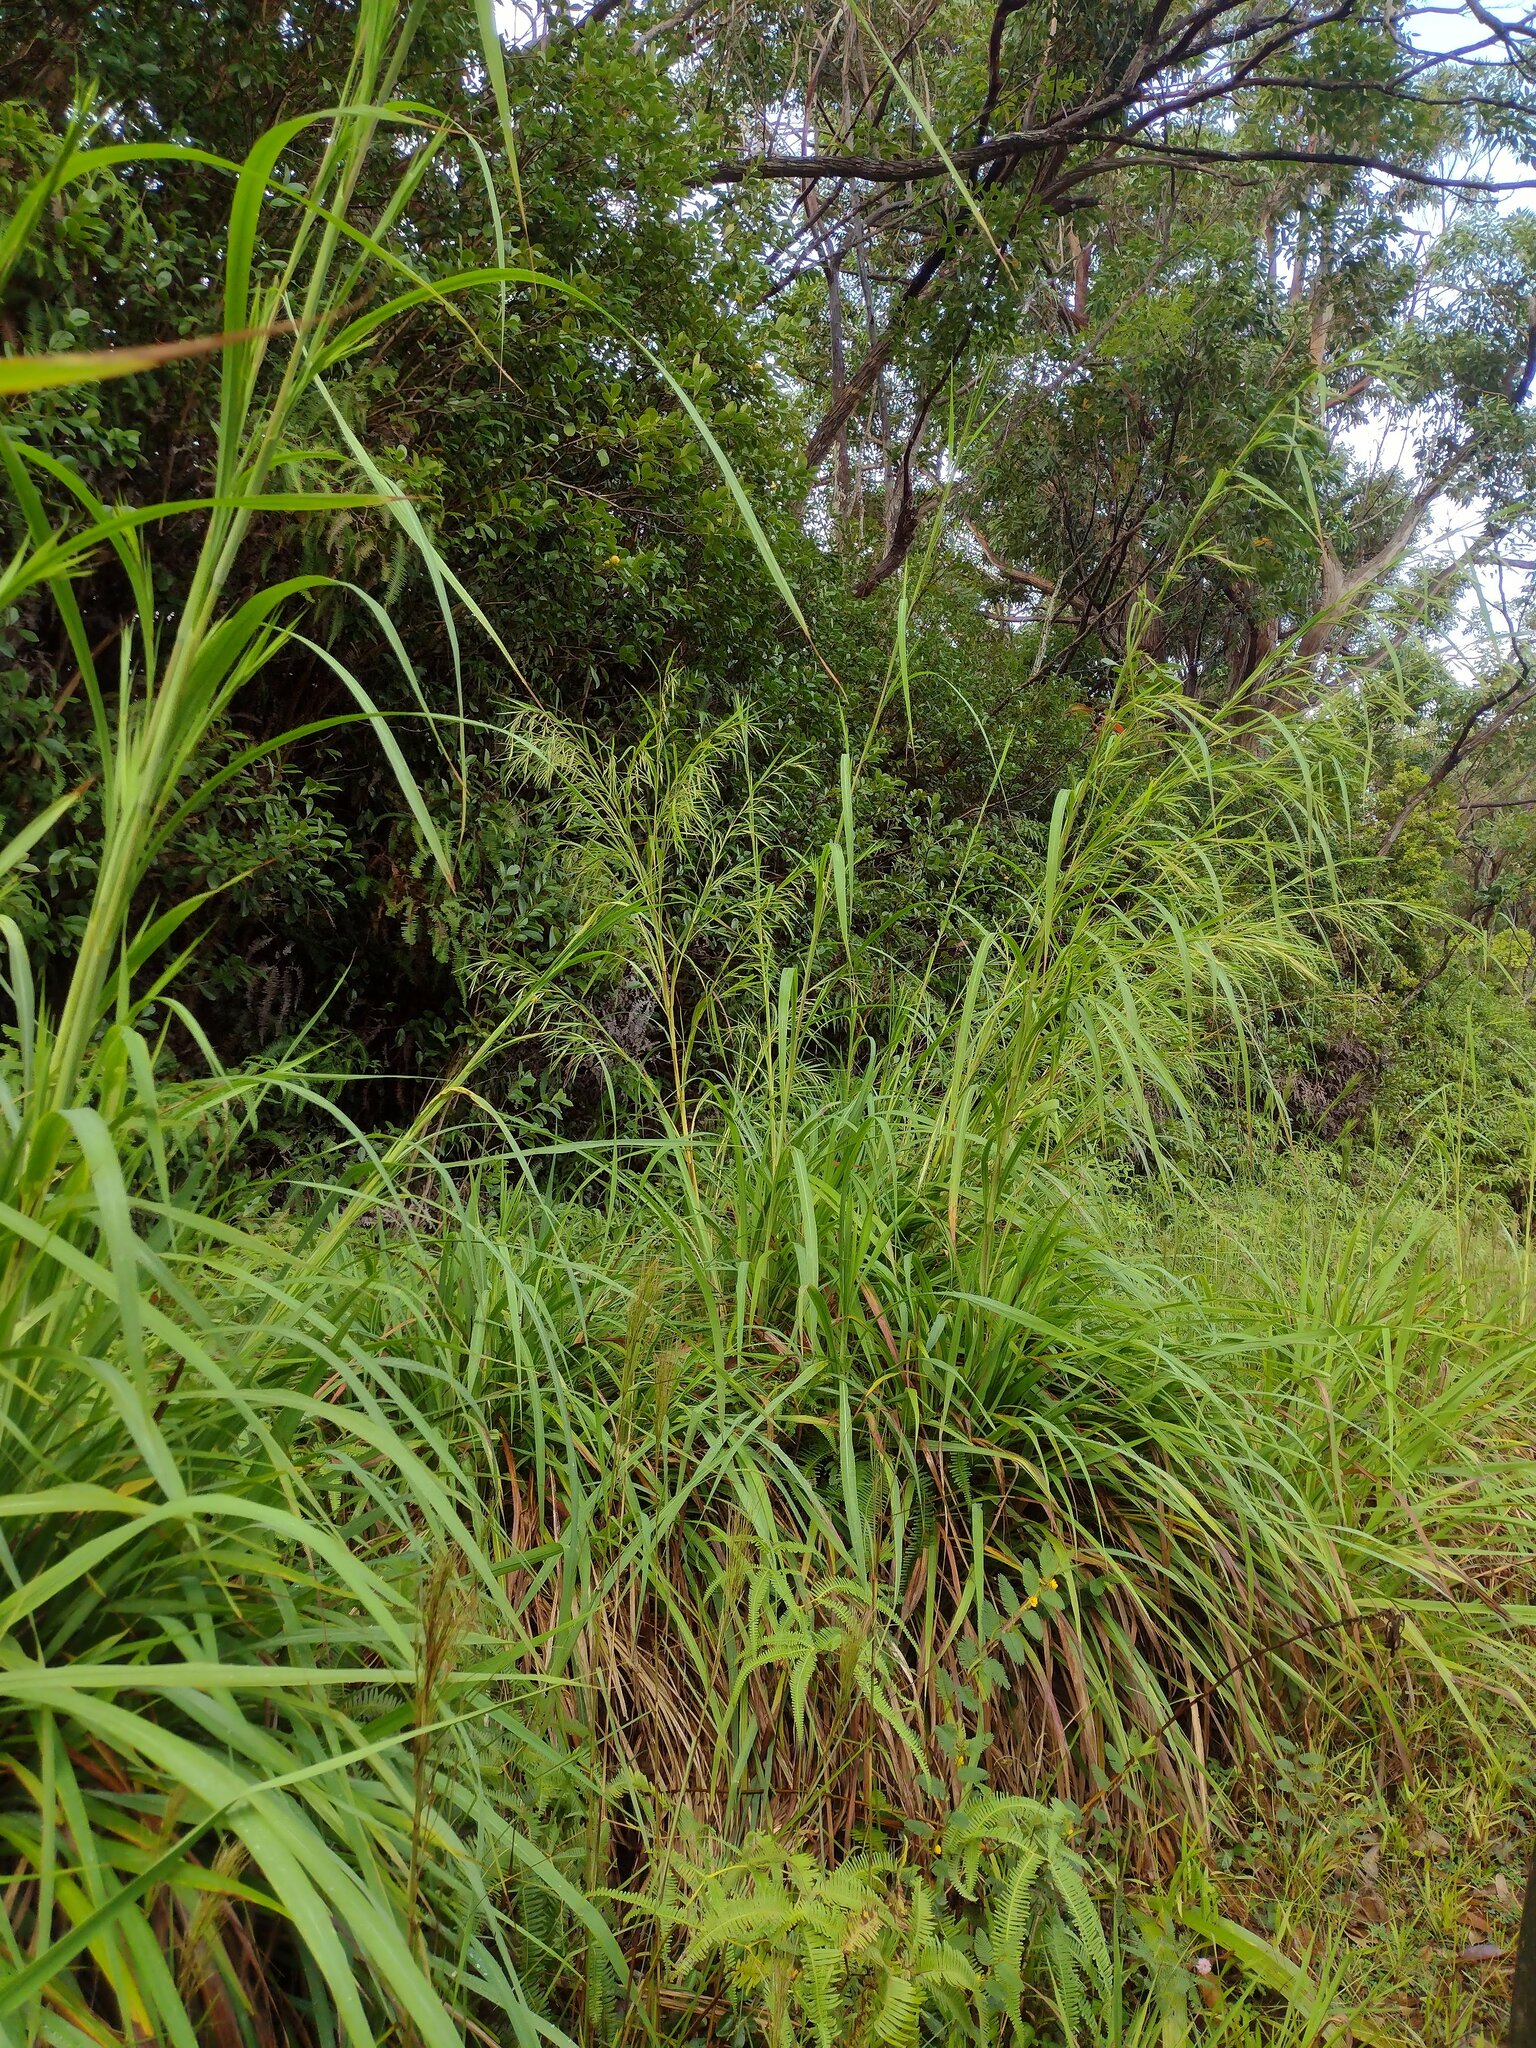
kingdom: Plantae
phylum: Tracheophyta
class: Liliopsida
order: Poales
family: Poaceae
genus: Themeda
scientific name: Themeda villosa
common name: Silky kangaroo grass
